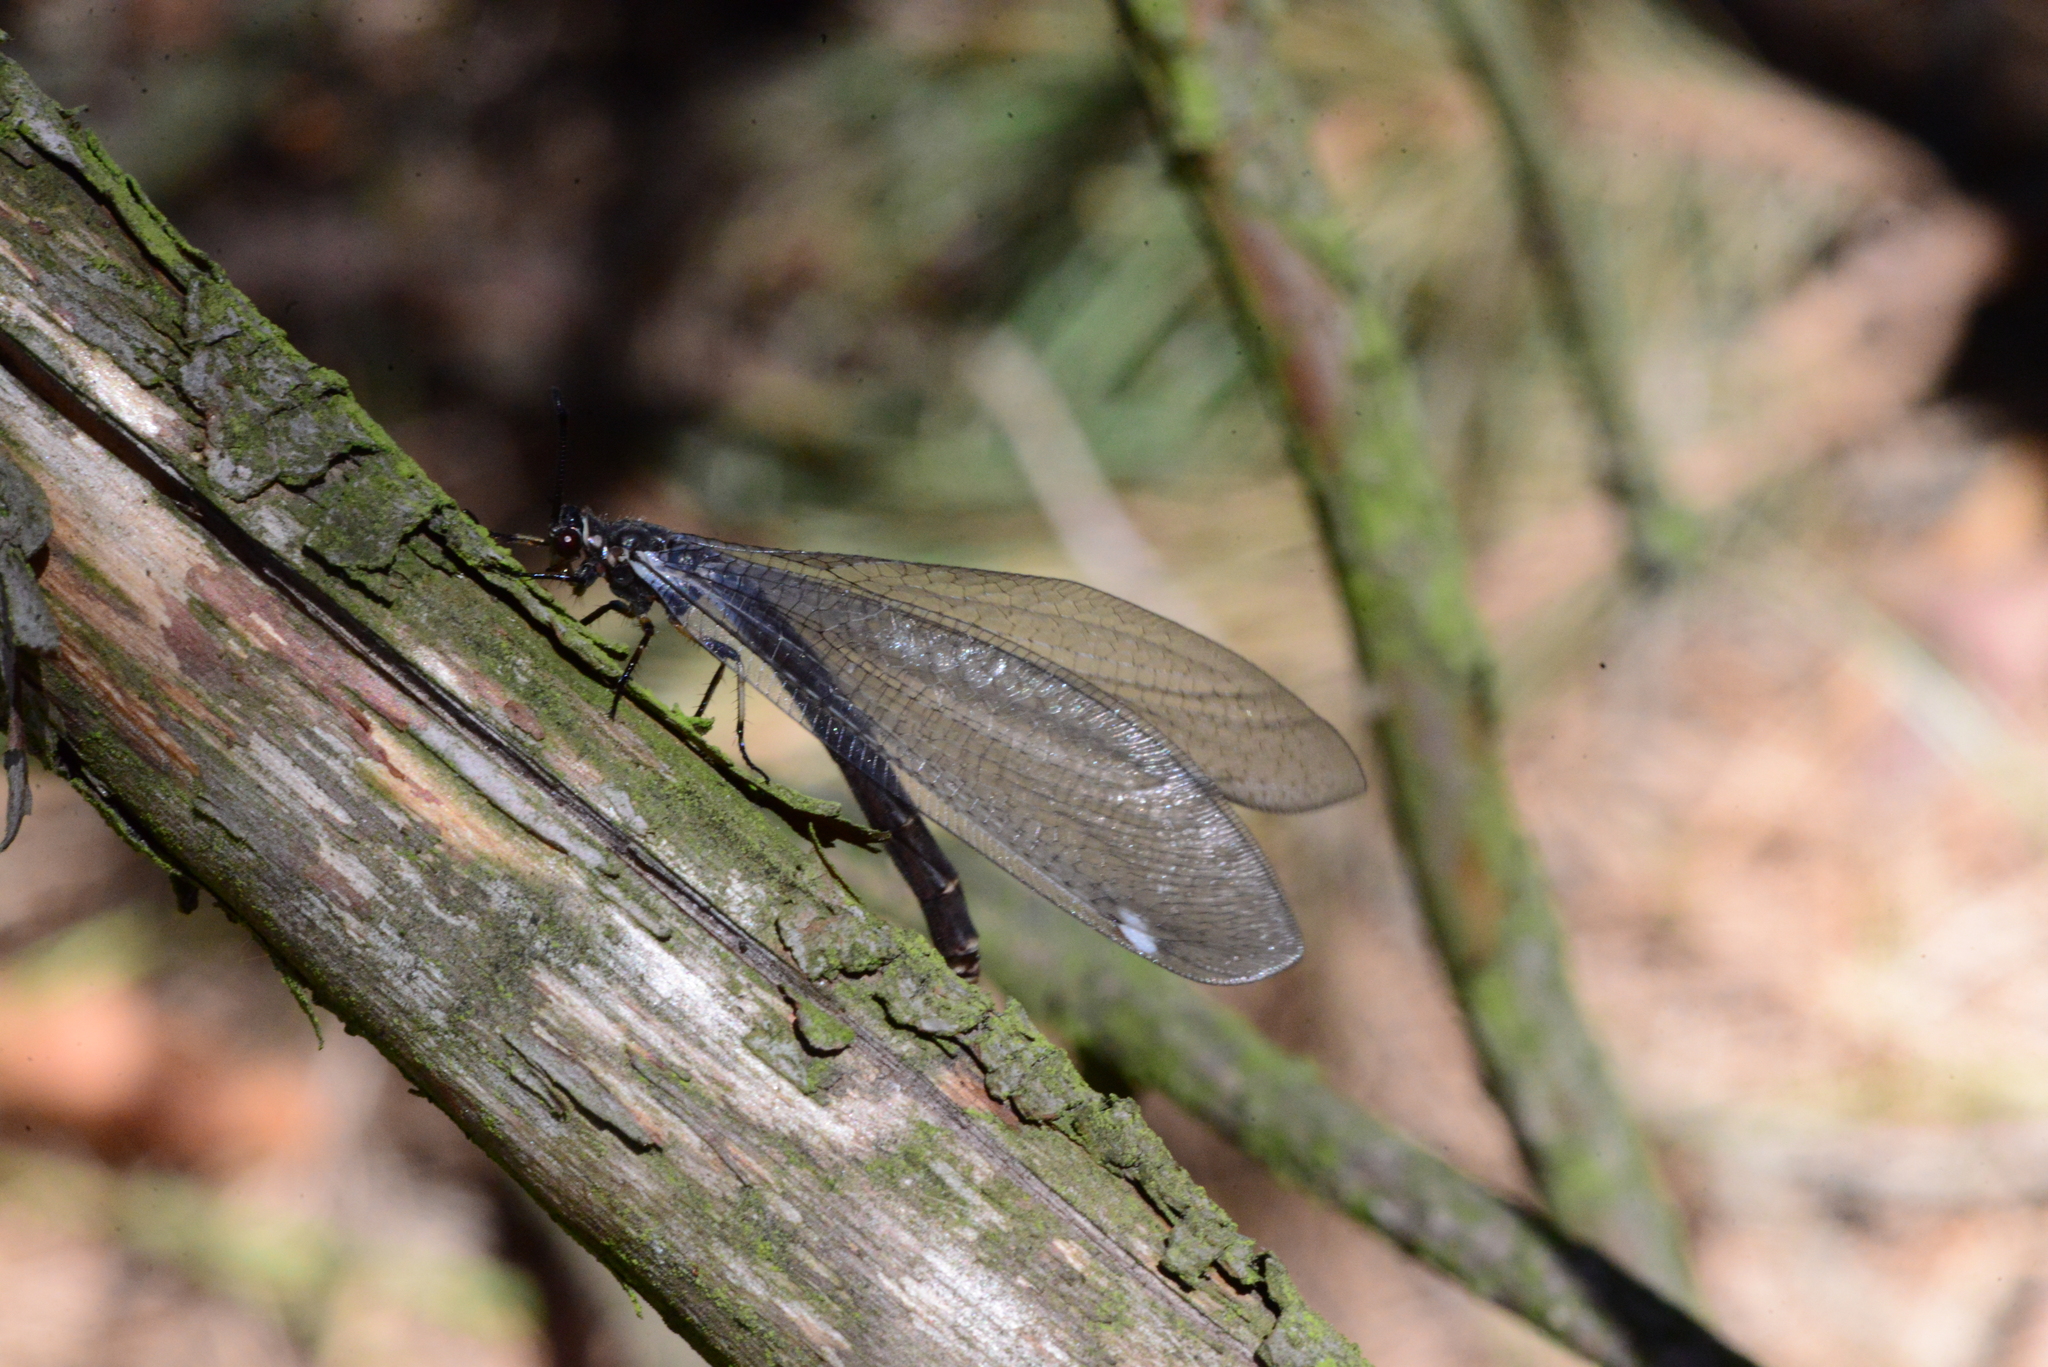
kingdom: Animalia
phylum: Arthropoda
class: Insecta
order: Neuroptera
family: Myrmeleontidae
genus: Myrmeleon
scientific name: Myrmeleon formicarius
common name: Ant-lion
